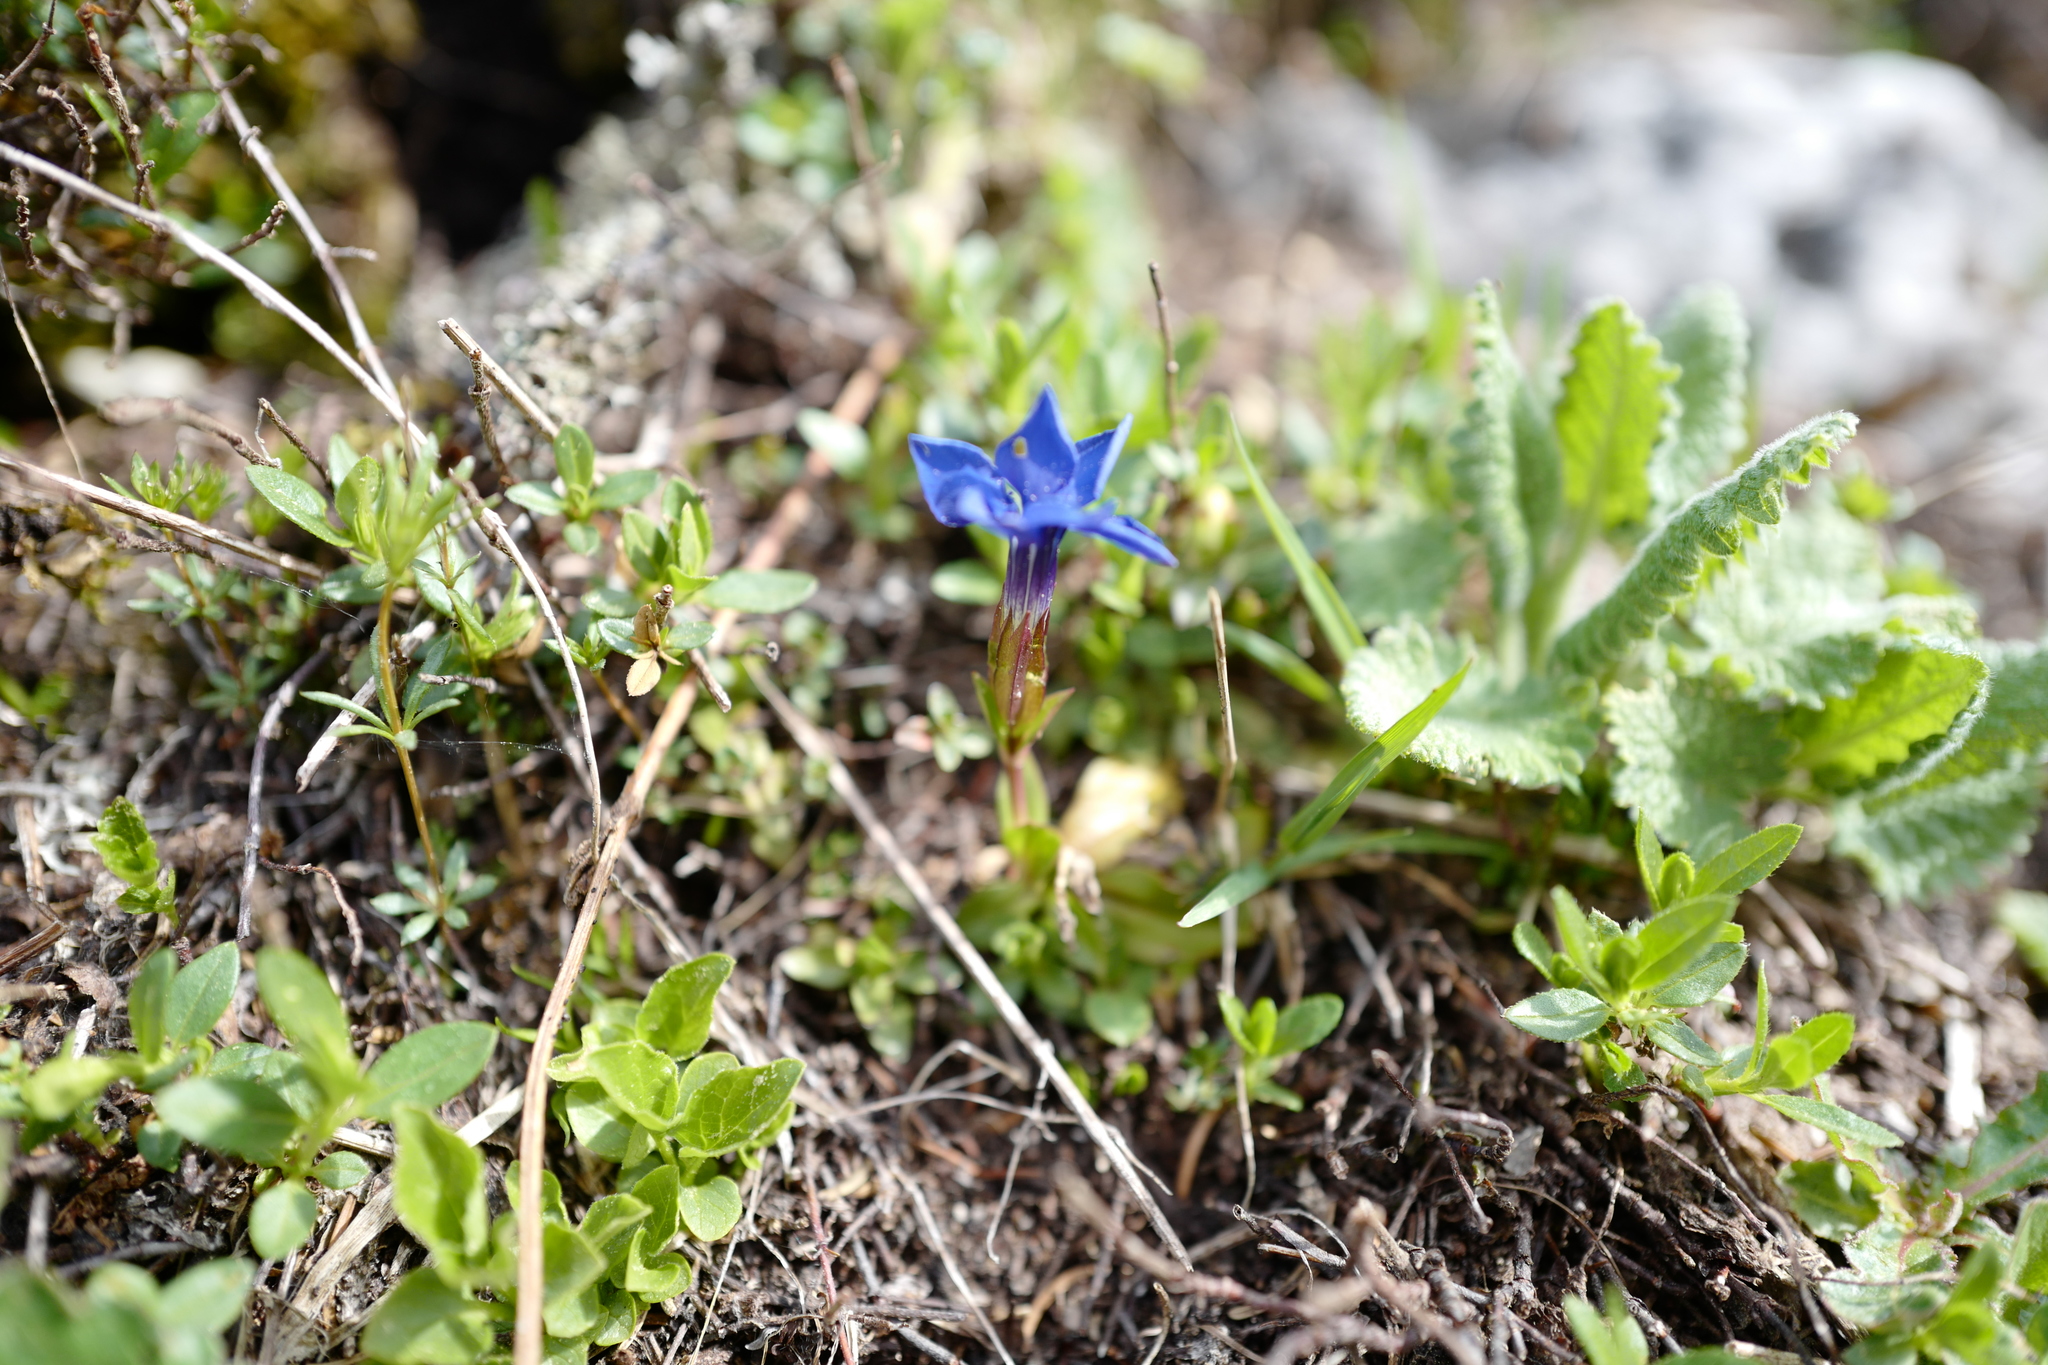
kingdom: Plantae
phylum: Tracheophyta
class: Magnoliopsida
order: Gentianales
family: Gentianaceae
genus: Gentiana
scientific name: Gentiana verna
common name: Spring gentian
